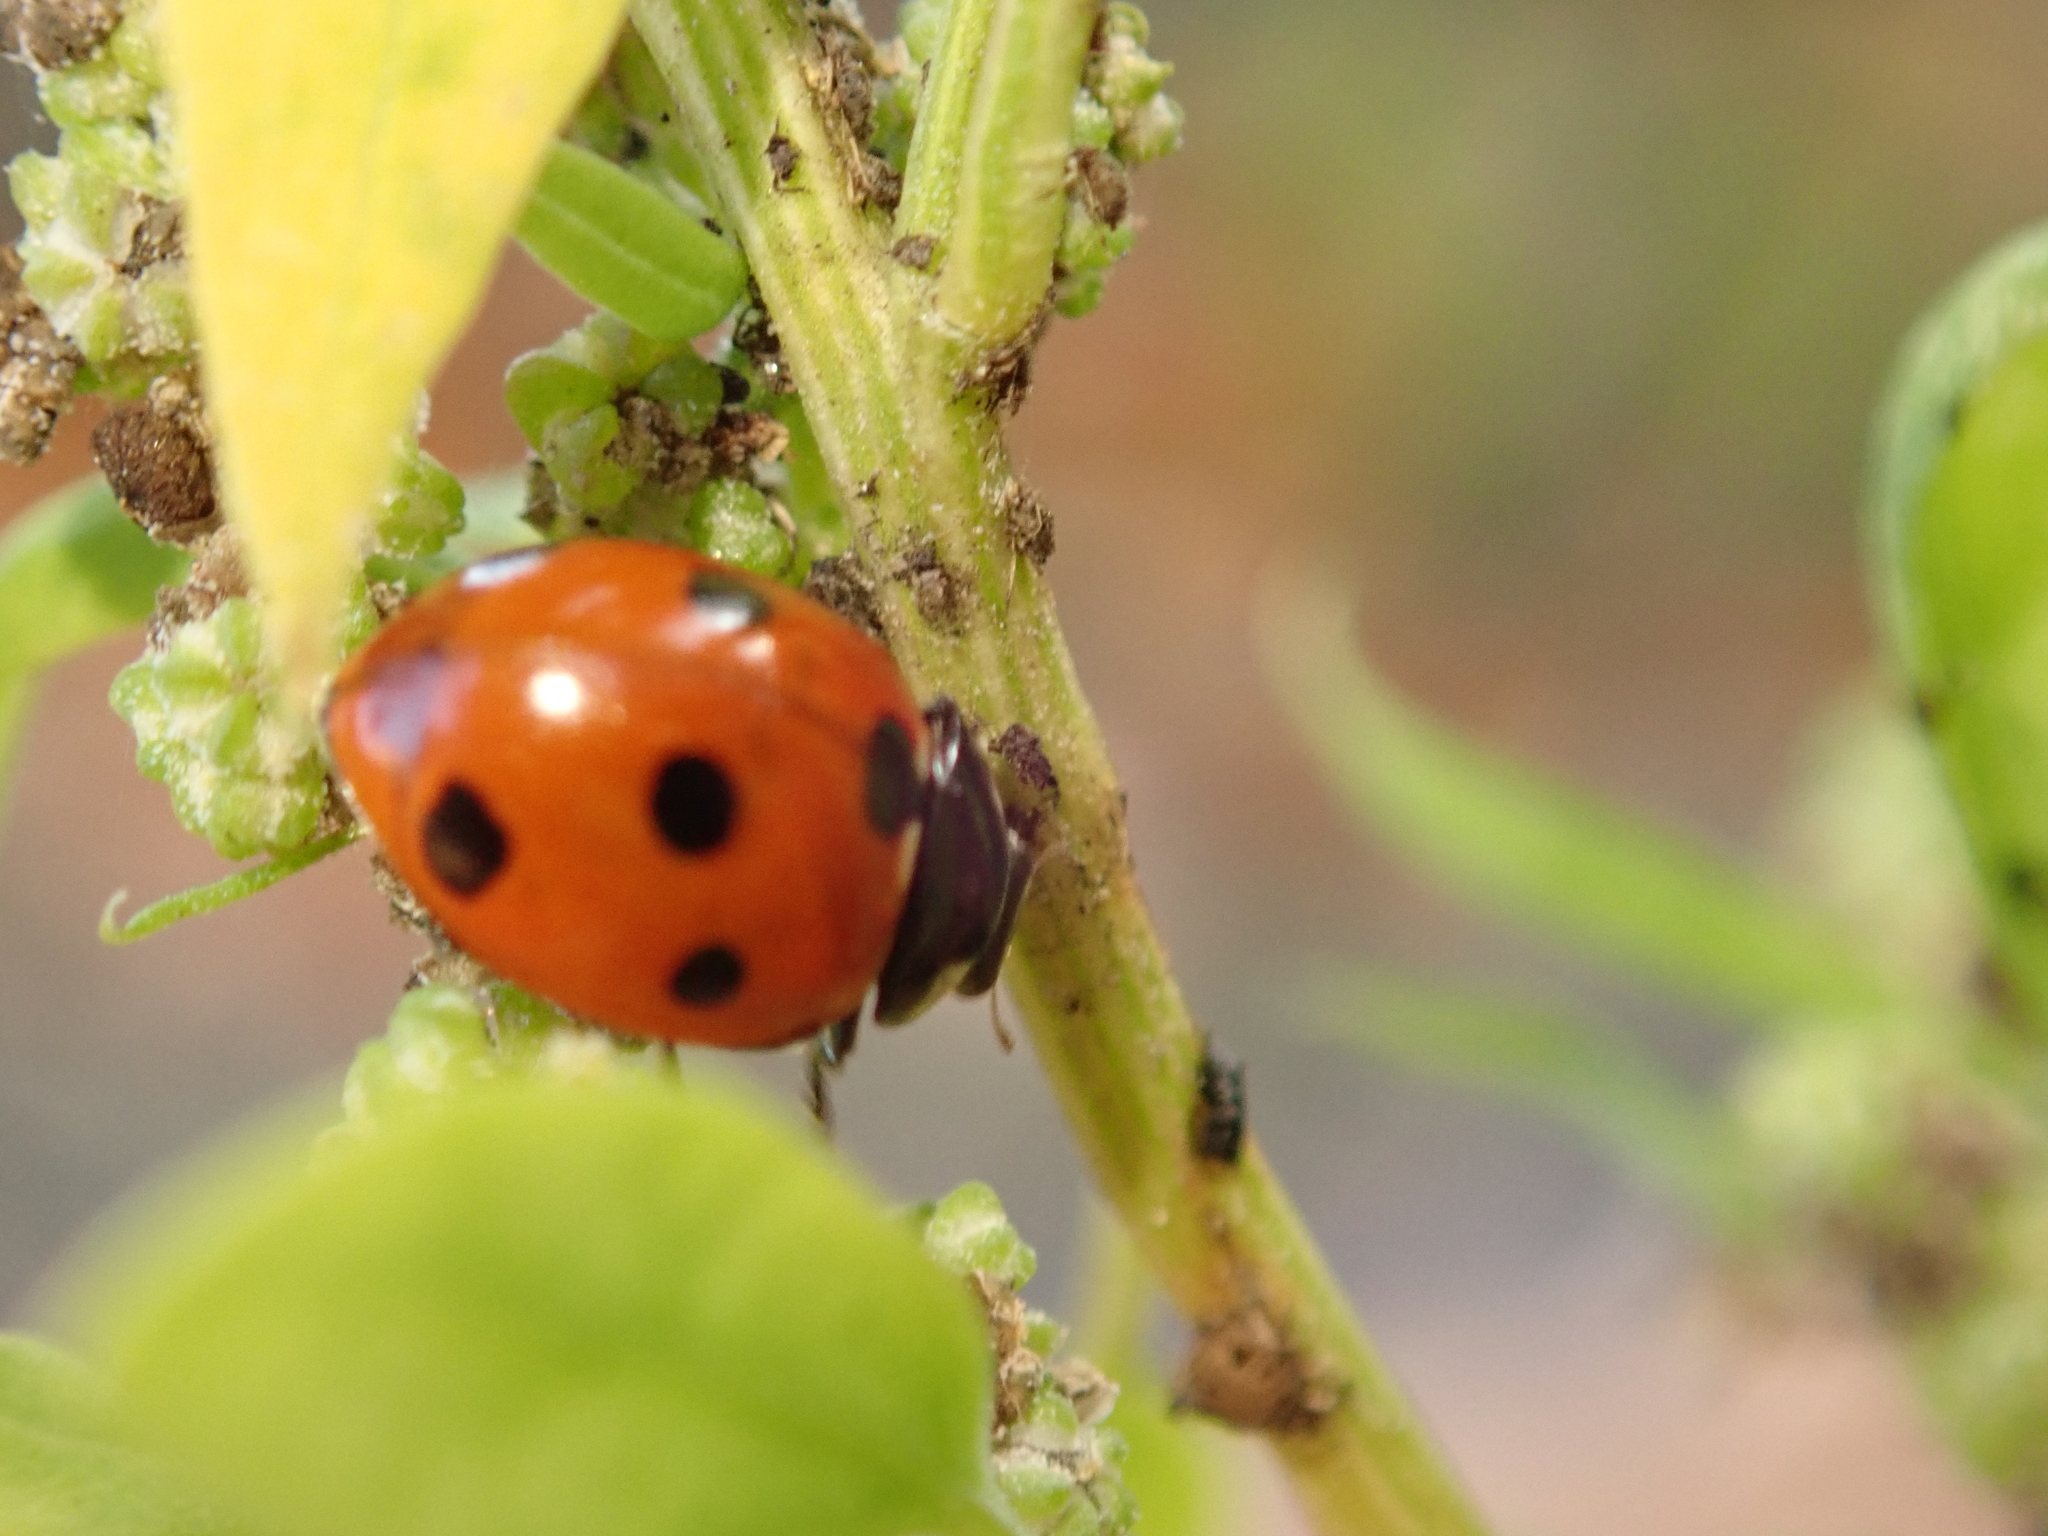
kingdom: Animalia
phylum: Arthropoda
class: Insecta
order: Coleoptera
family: Coccinellidae
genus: Coccinella
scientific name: Coccinella septempunctata
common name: Sevenspotted lady beetle
